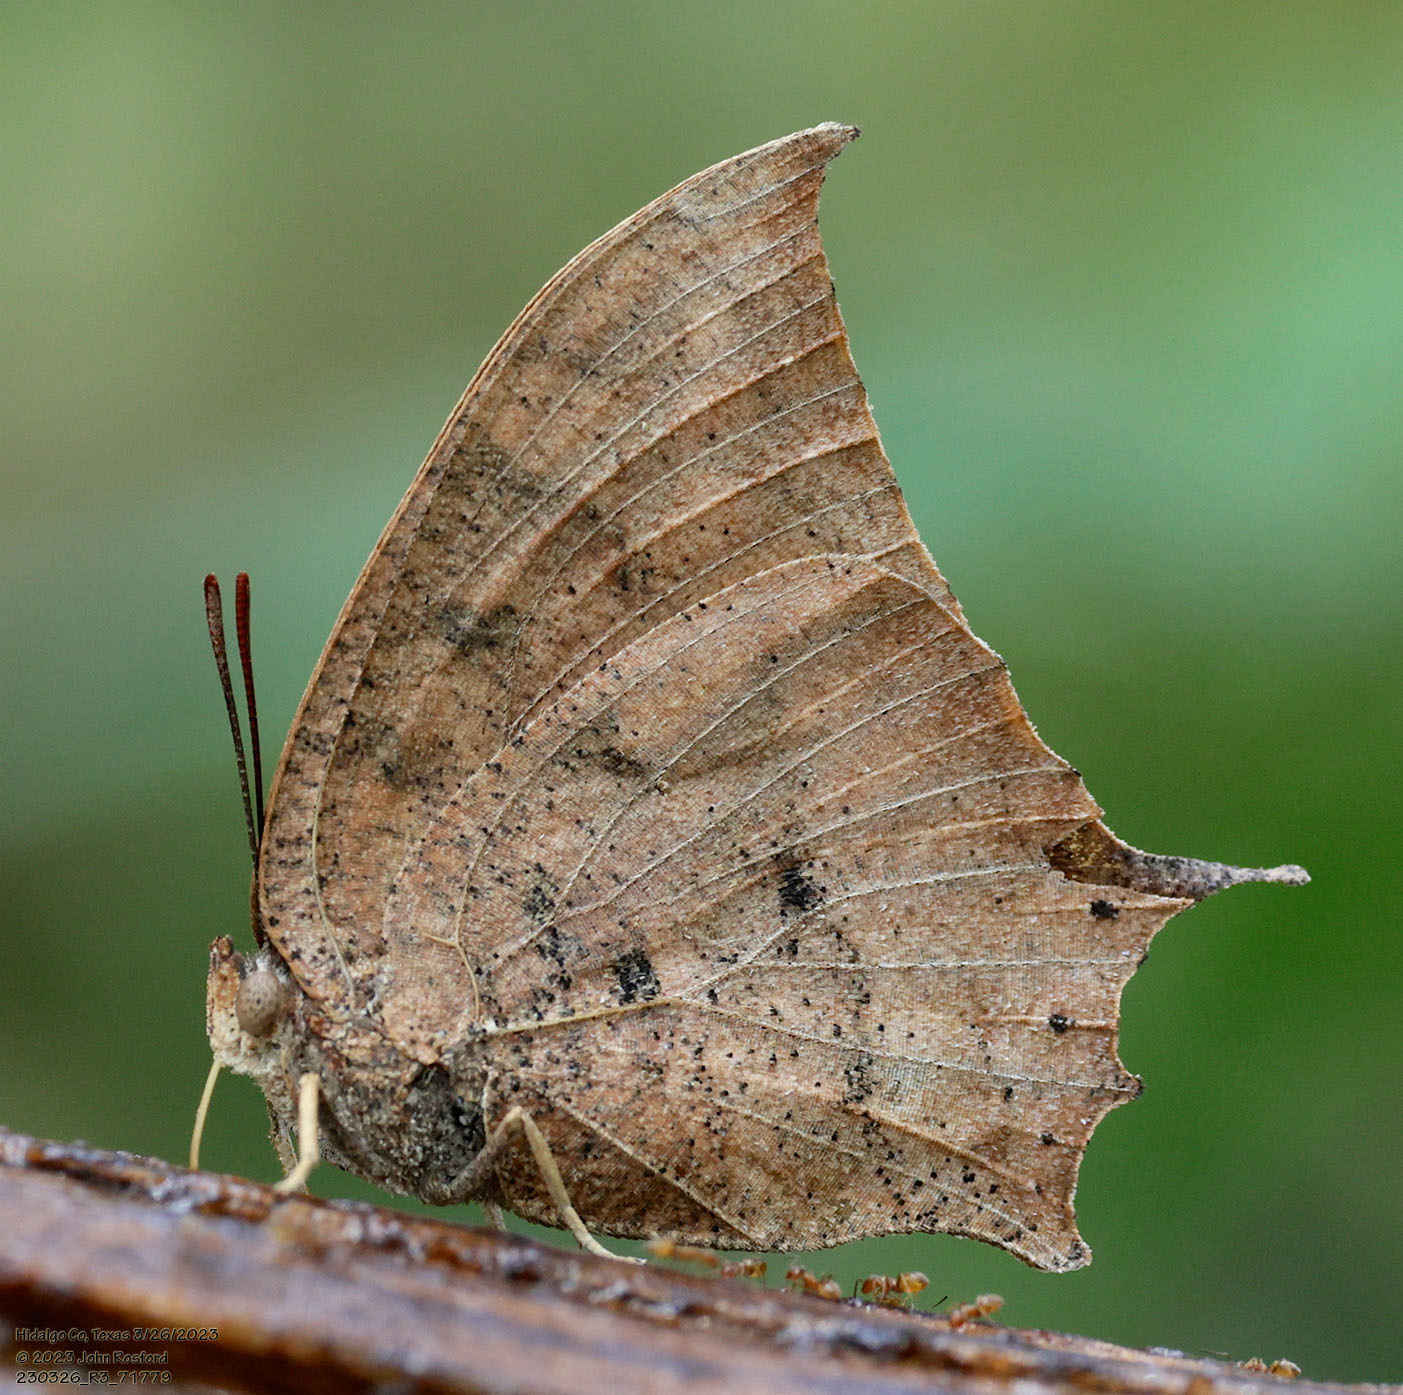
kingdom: Animalia
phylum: Arthropoda
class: Insecta
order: Lepidoptera
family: Nymphalidae
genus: Anaea
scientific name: Anaea aidea
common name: Tropical leafwing
